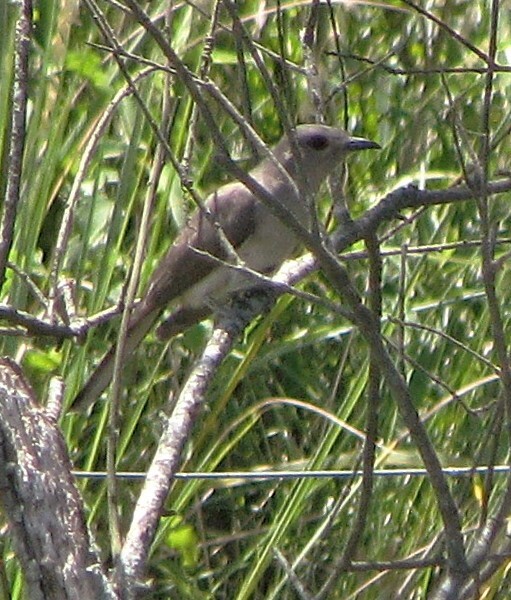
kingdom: Animalia
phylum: Chordata
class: Aves
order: Cuculiformes
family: Cuculidae
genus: Coccyzus
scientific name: Coccyzus cinereus
